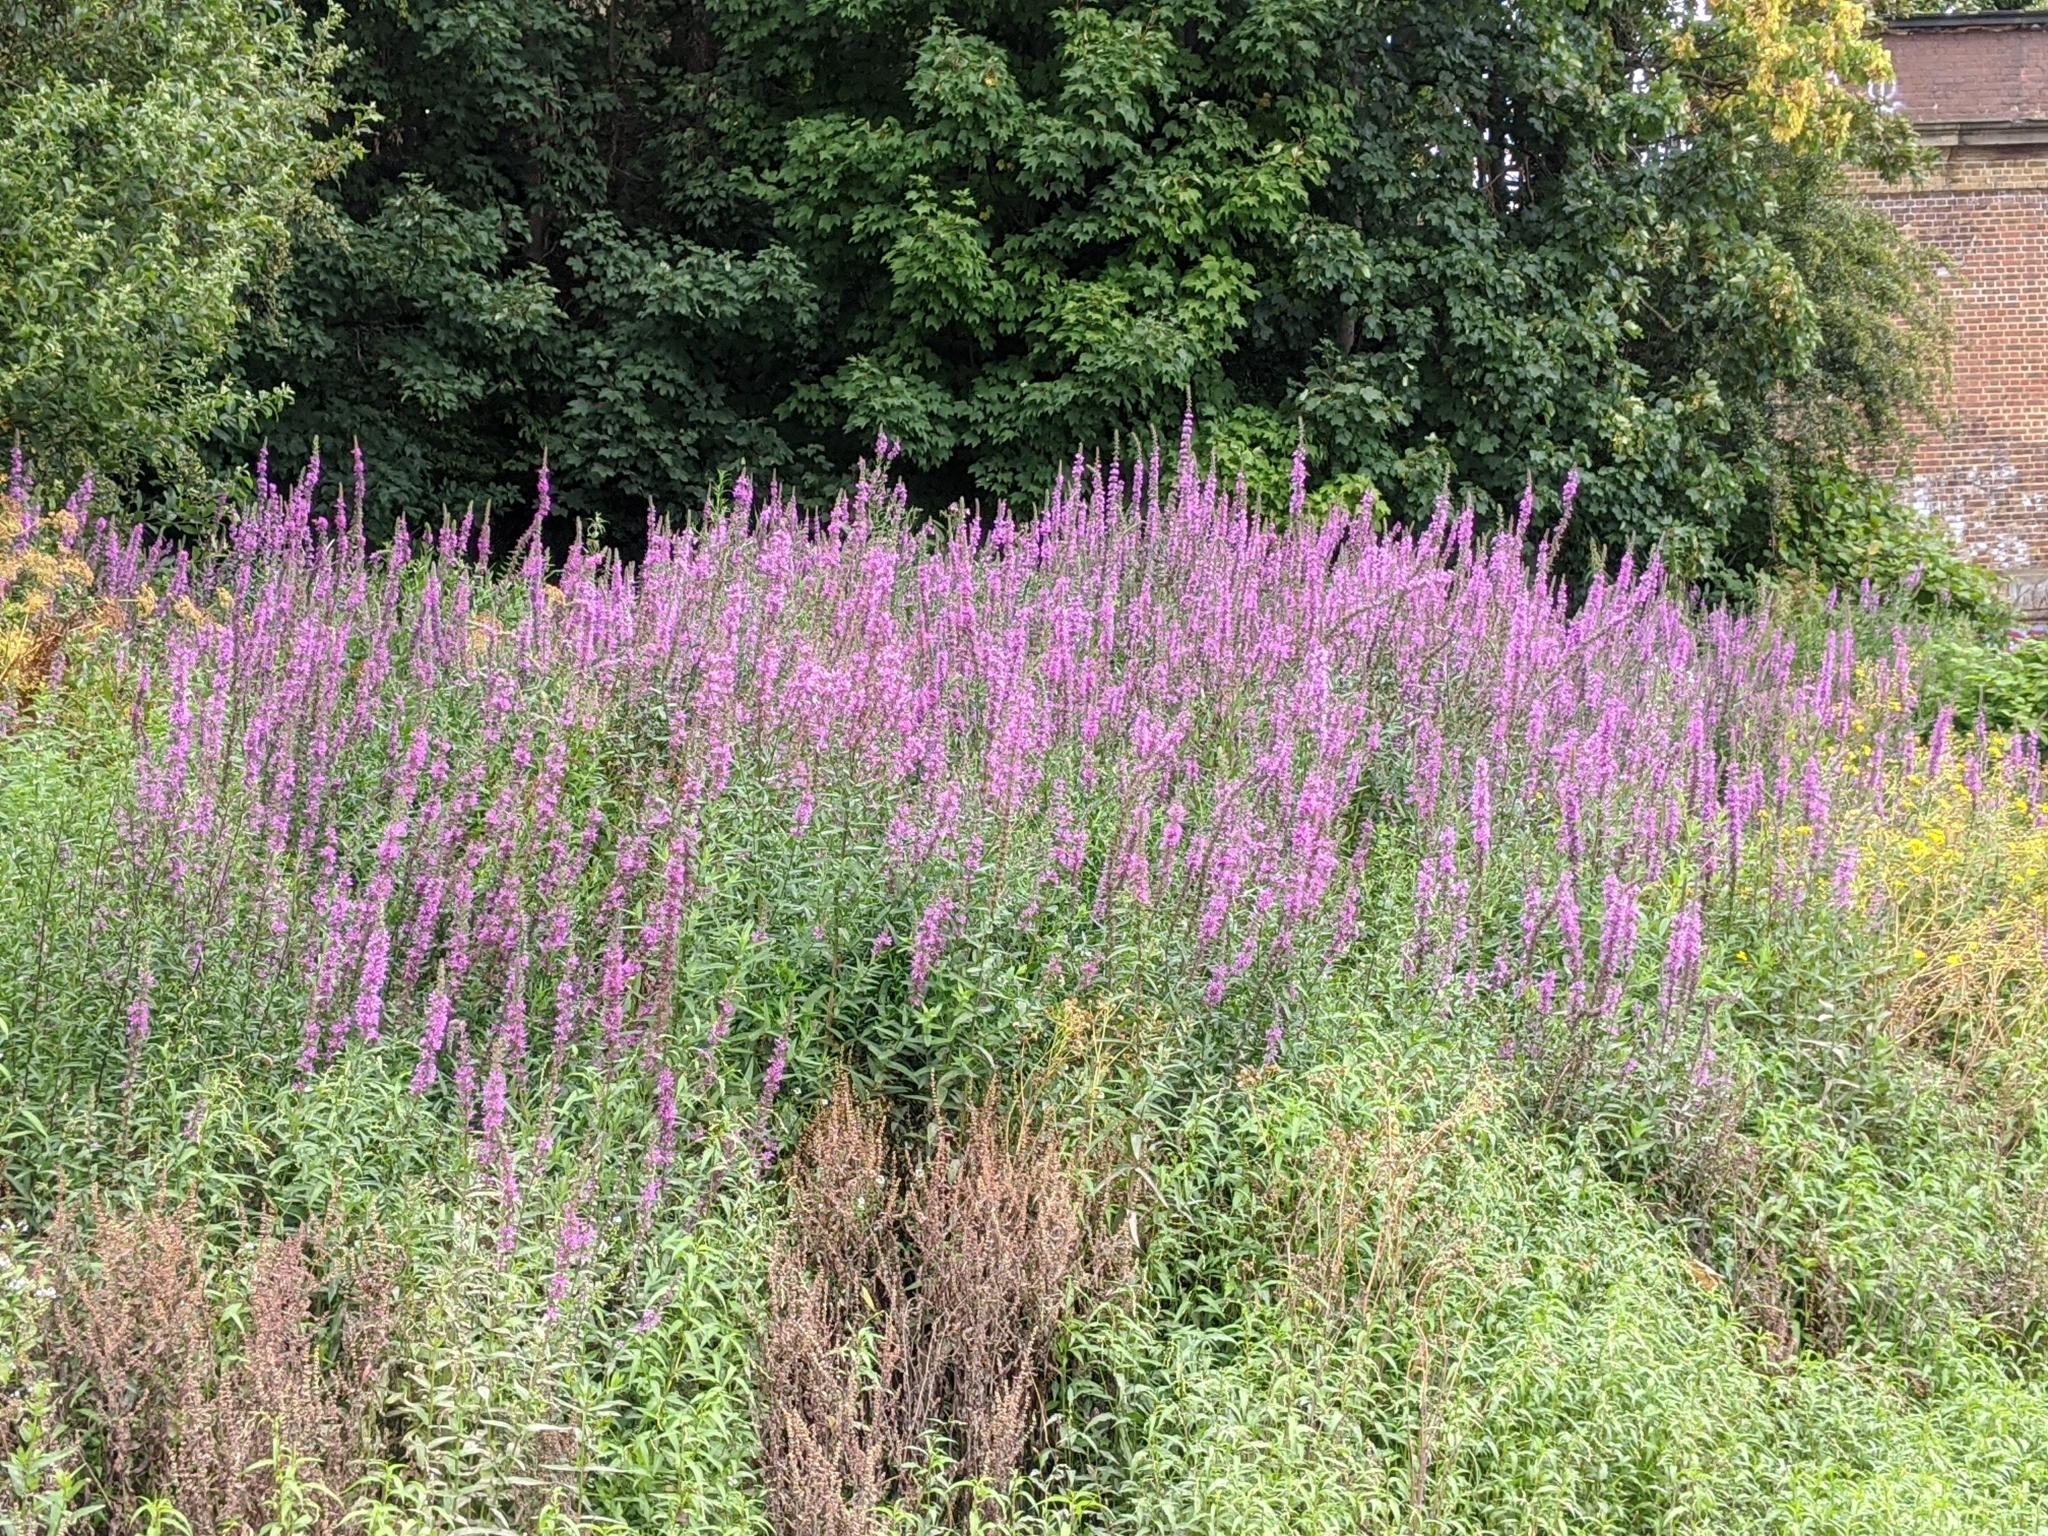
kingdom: Plantae
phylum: Tracheophyta
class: Magnoliopsida
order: Myrtales
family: Lythraceae
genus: Lythrum
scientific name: Lythrum salicaria
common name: Purple loosestrife
